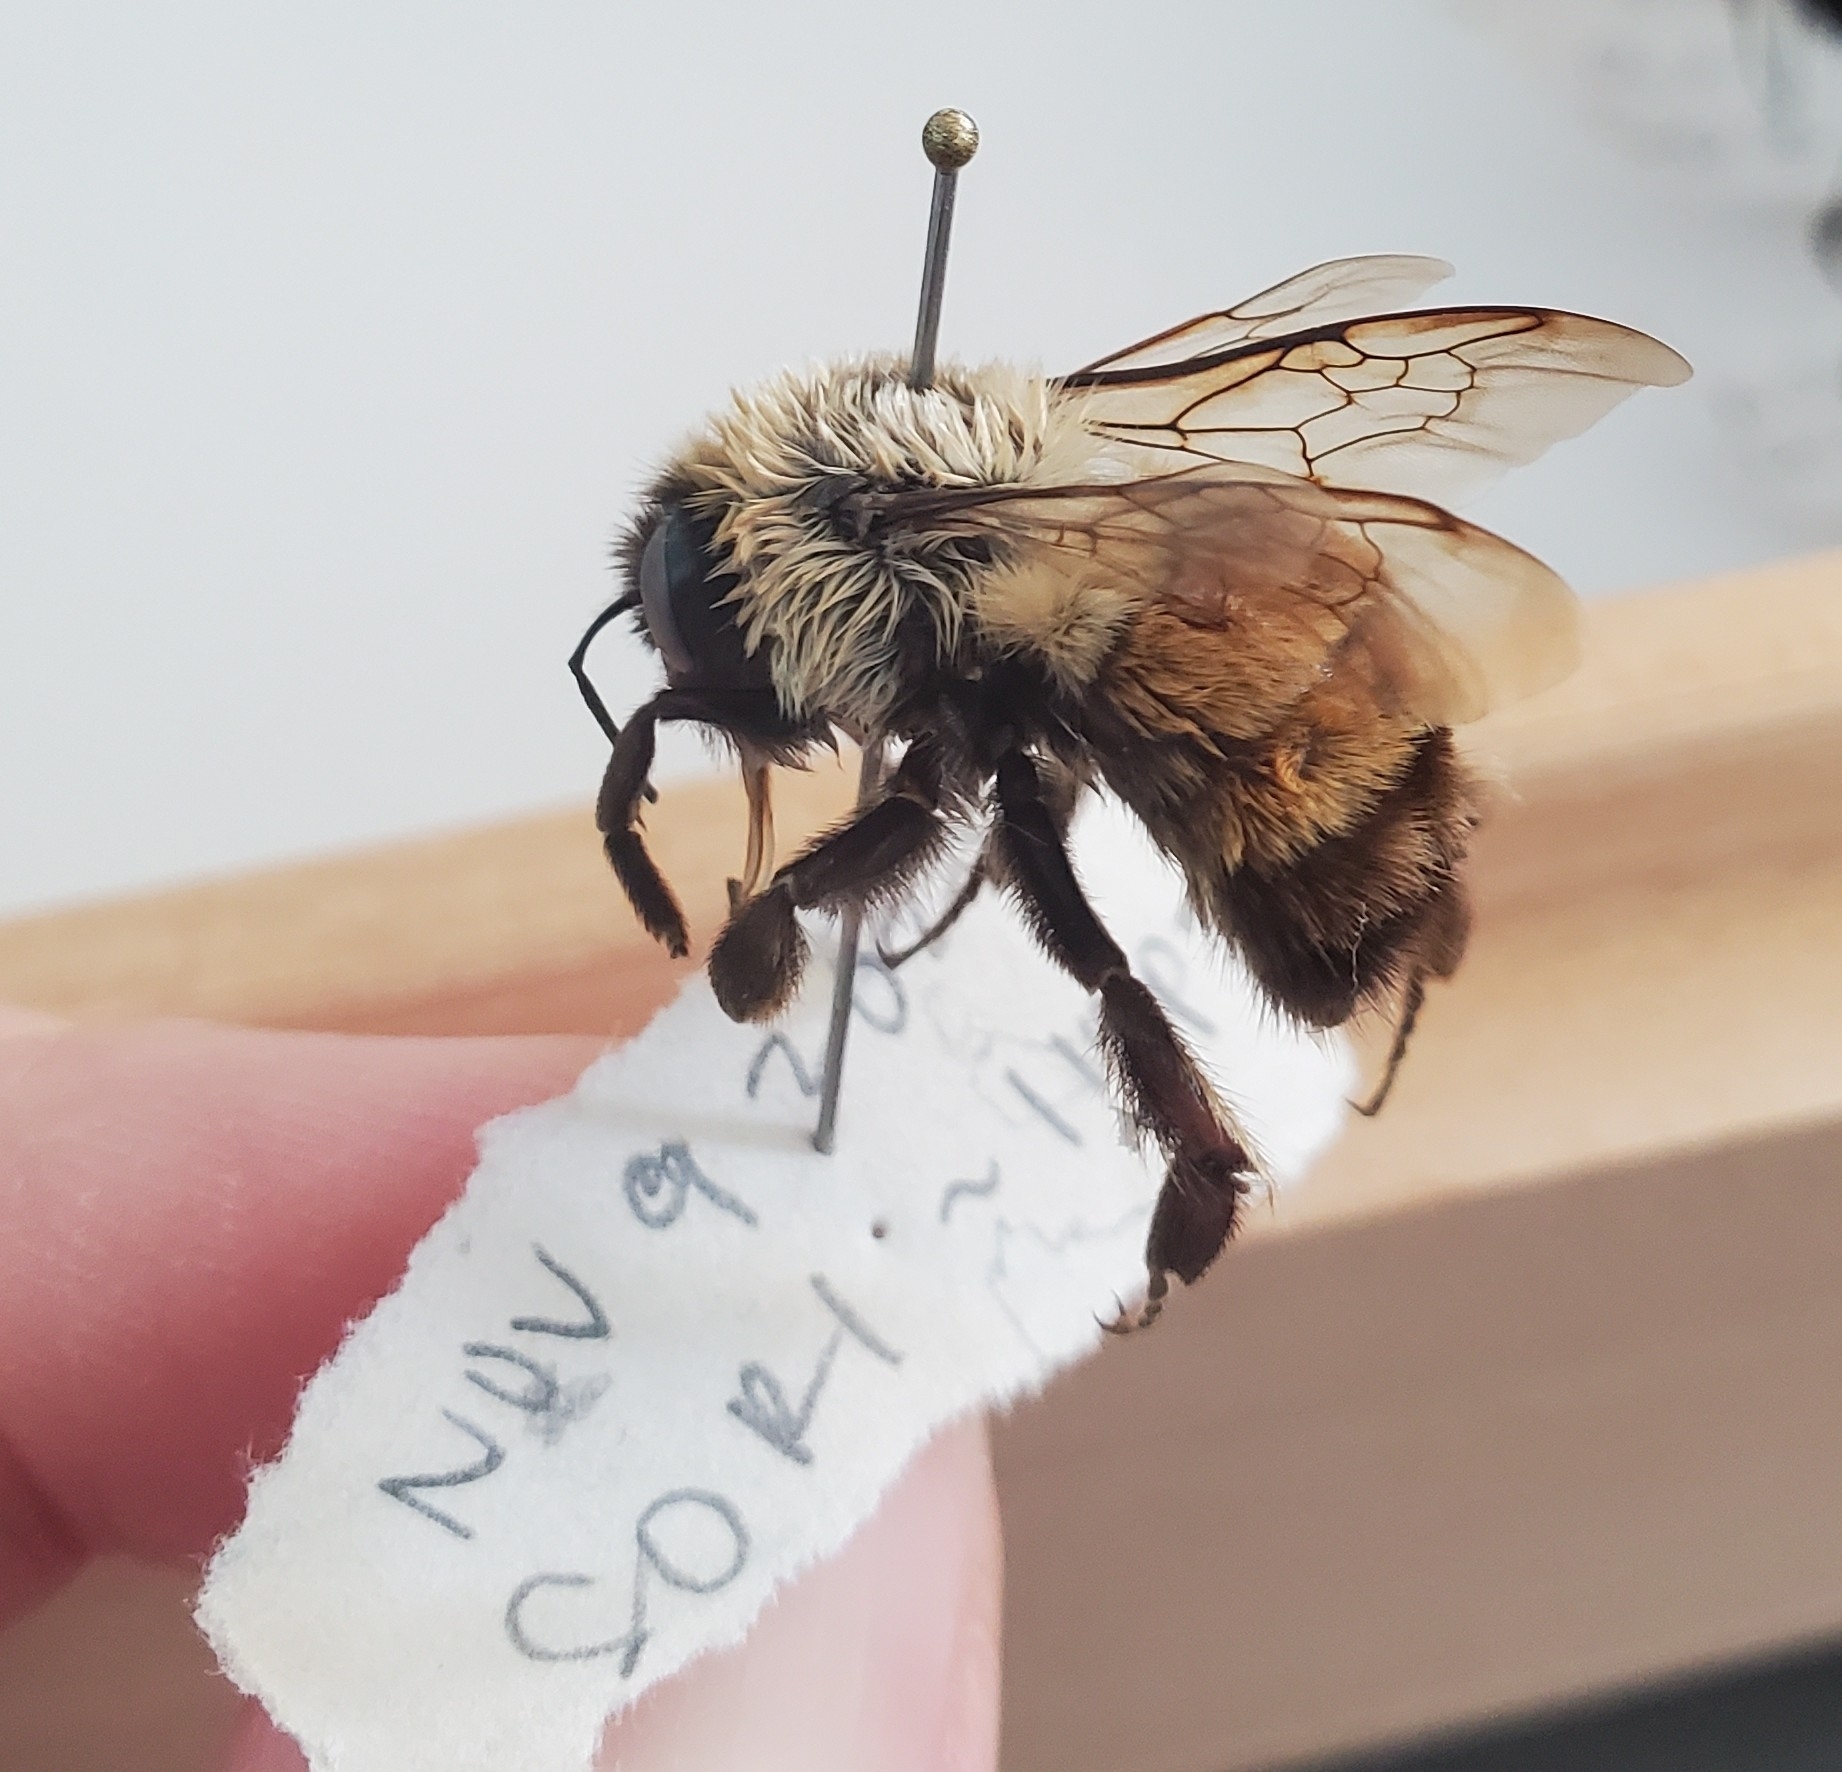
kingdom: Animalia
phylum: Arthropoda
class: Insecta
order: Hymenoptera
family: Apidae
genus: Bombus
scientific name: Bombus impatiens
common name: Common eastern bumble bee
